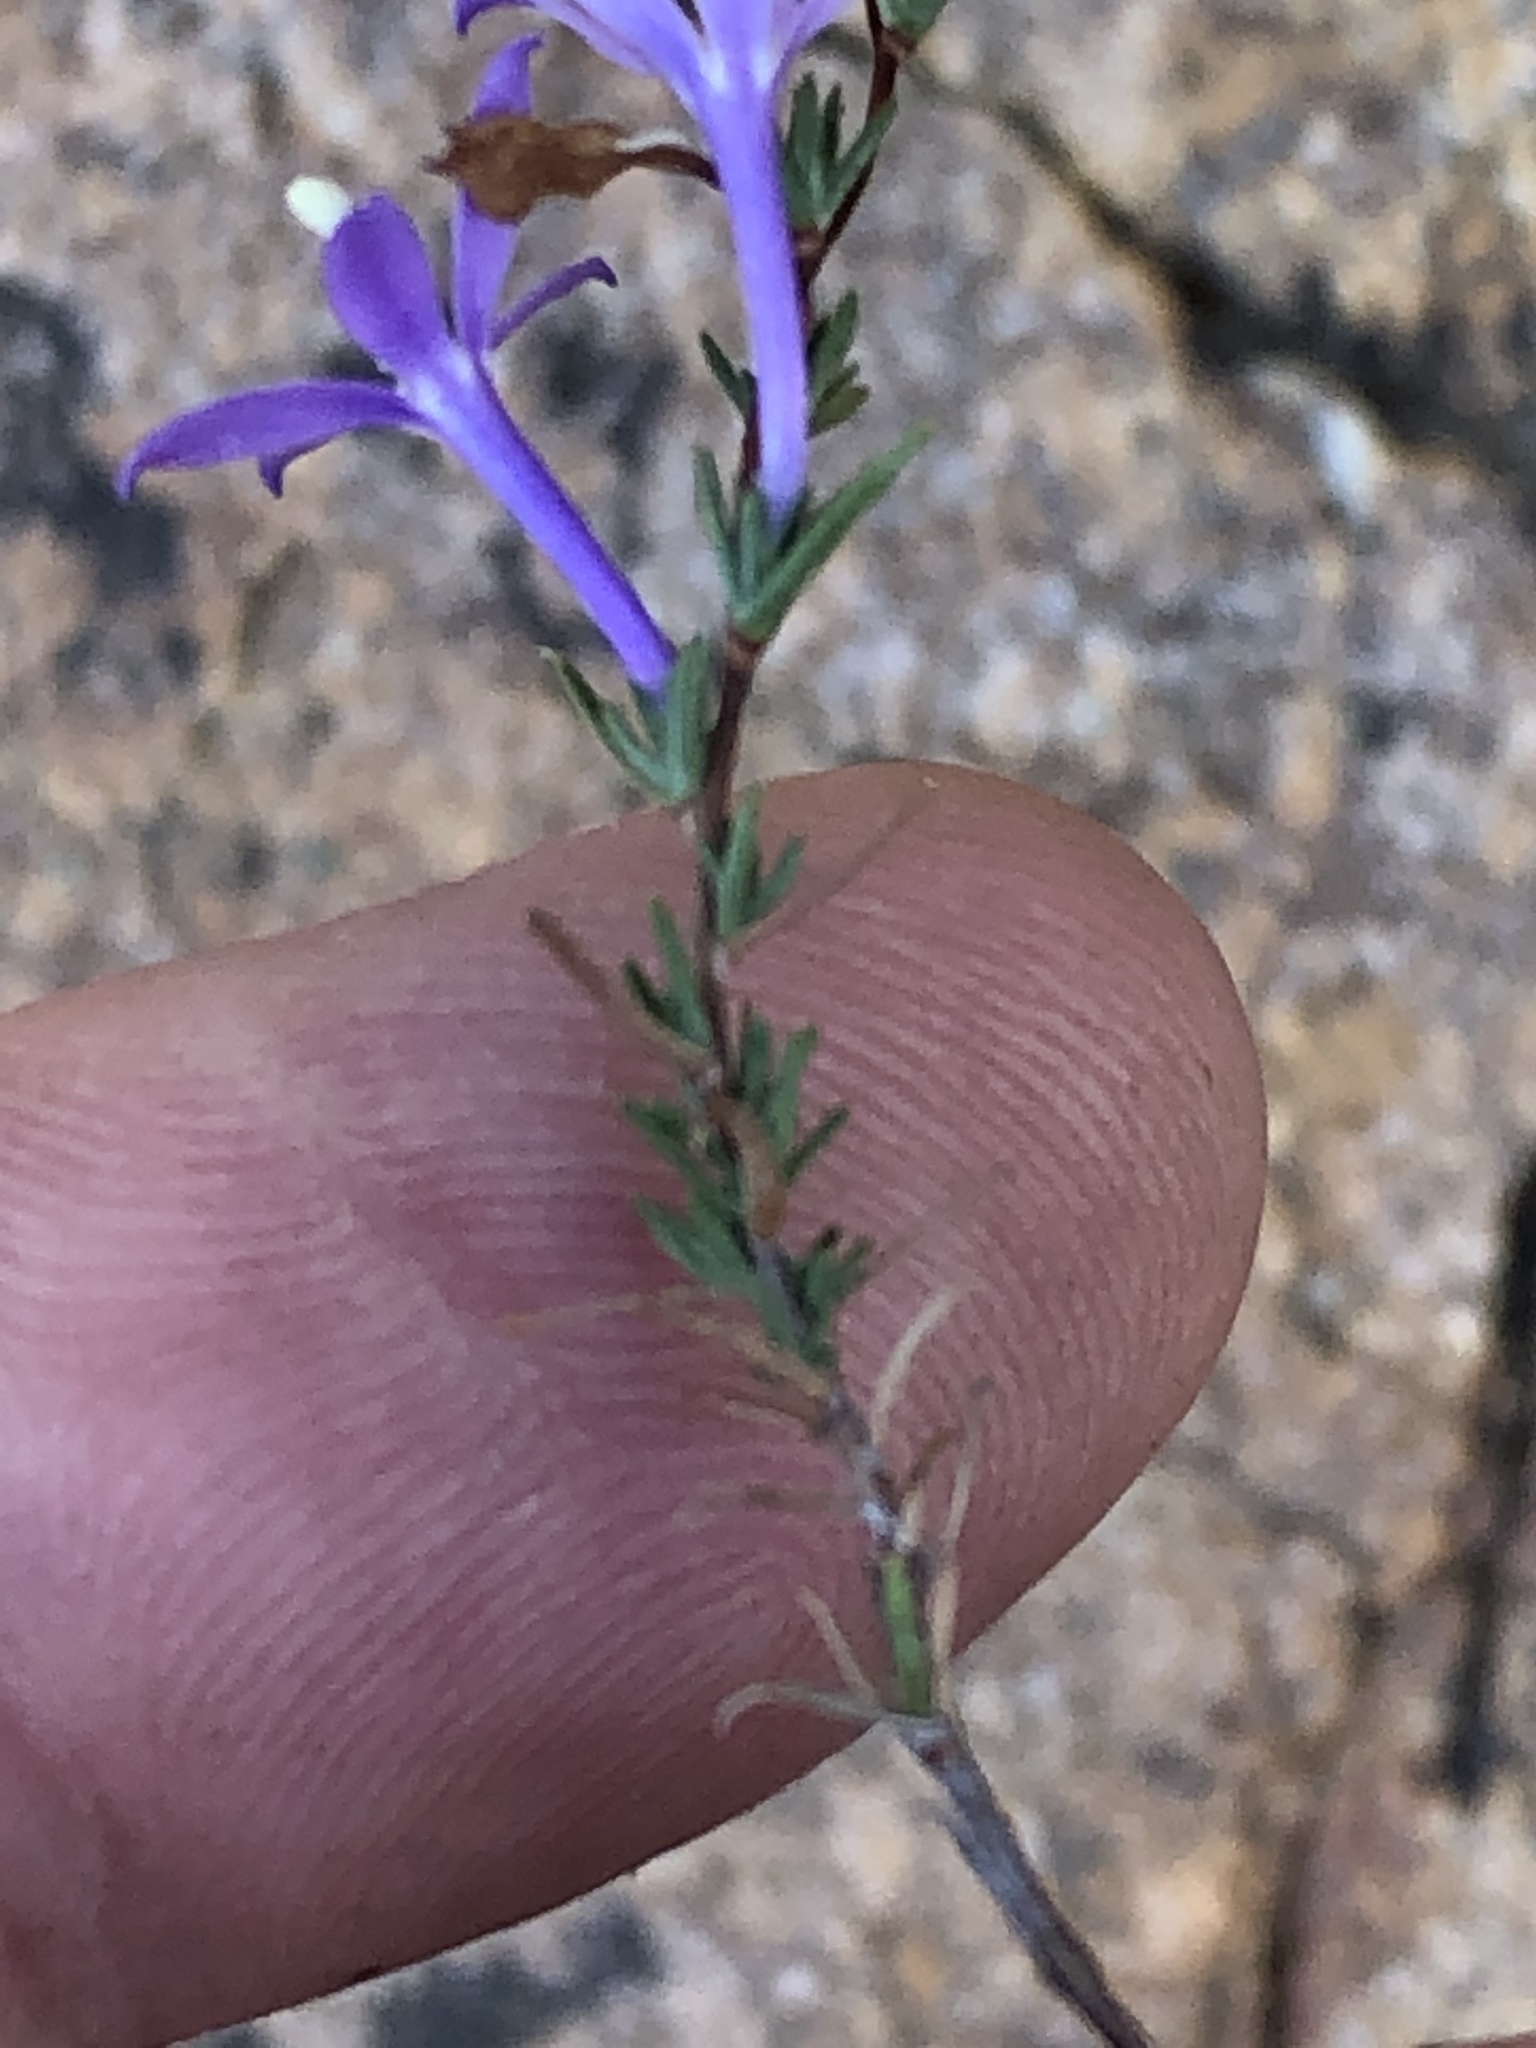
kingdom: Plantae
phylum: Tracheophyta
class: Magnoliopsida
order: Asterales
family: Campanulaceae
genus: Theilera
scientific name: Theilera guthriei
